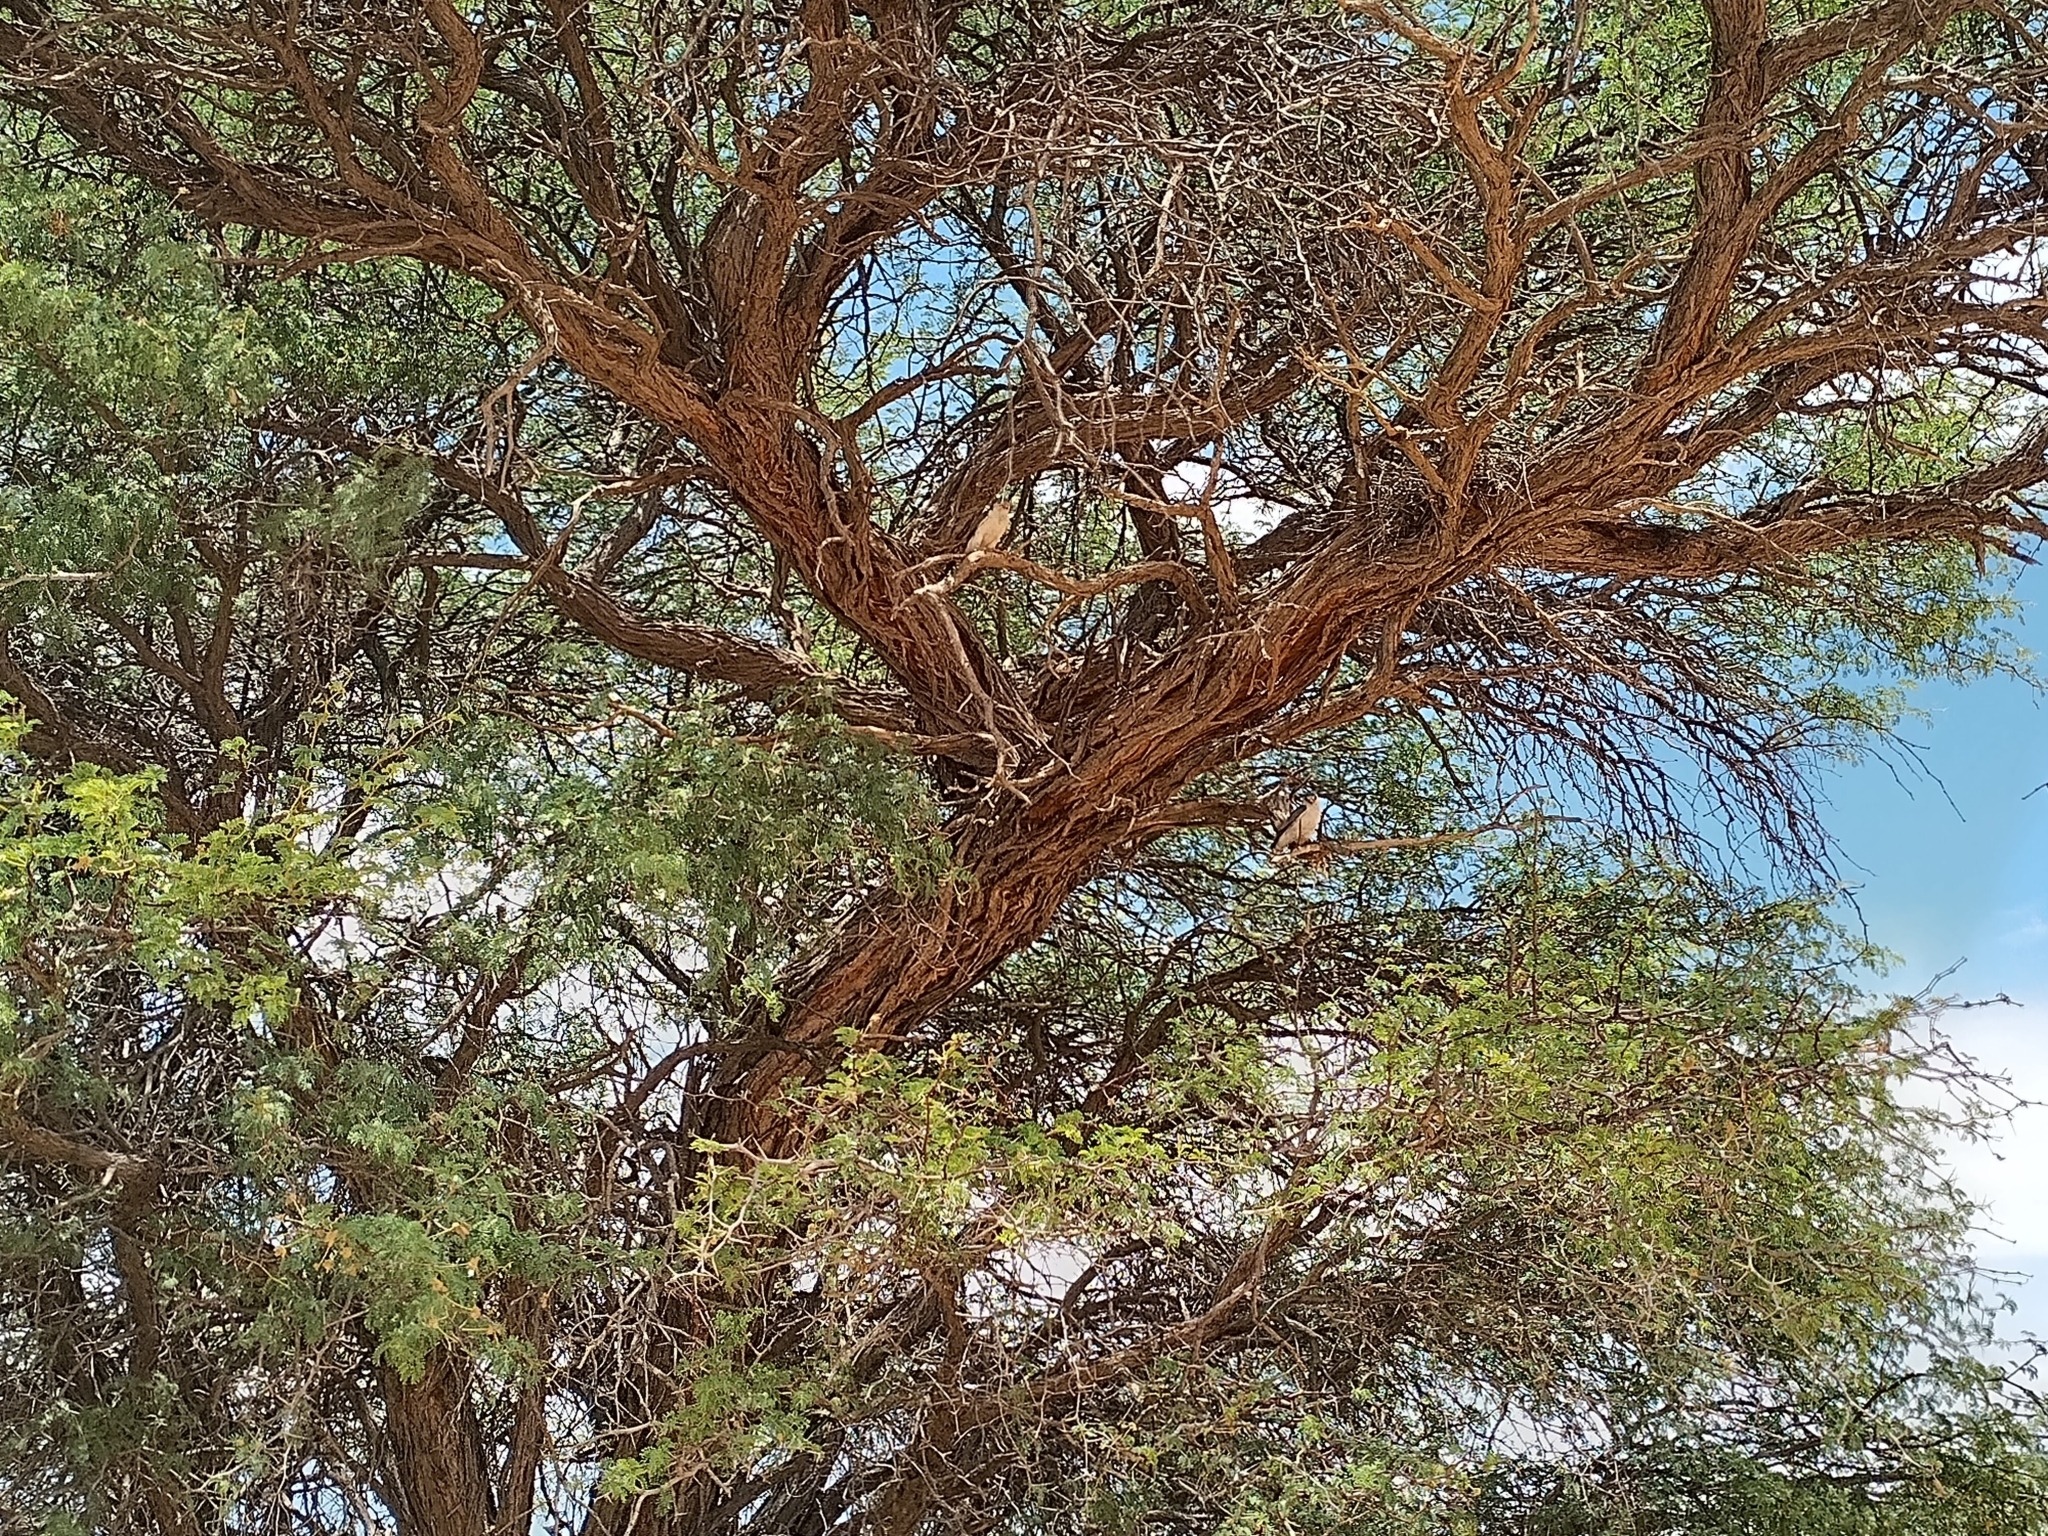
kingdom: Animalia
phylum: Chordata
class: Aves
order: Falconiformes
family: Falconidae
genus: Polihierax
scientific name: Polihierax semitorquatus
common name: Pygmy falcon
